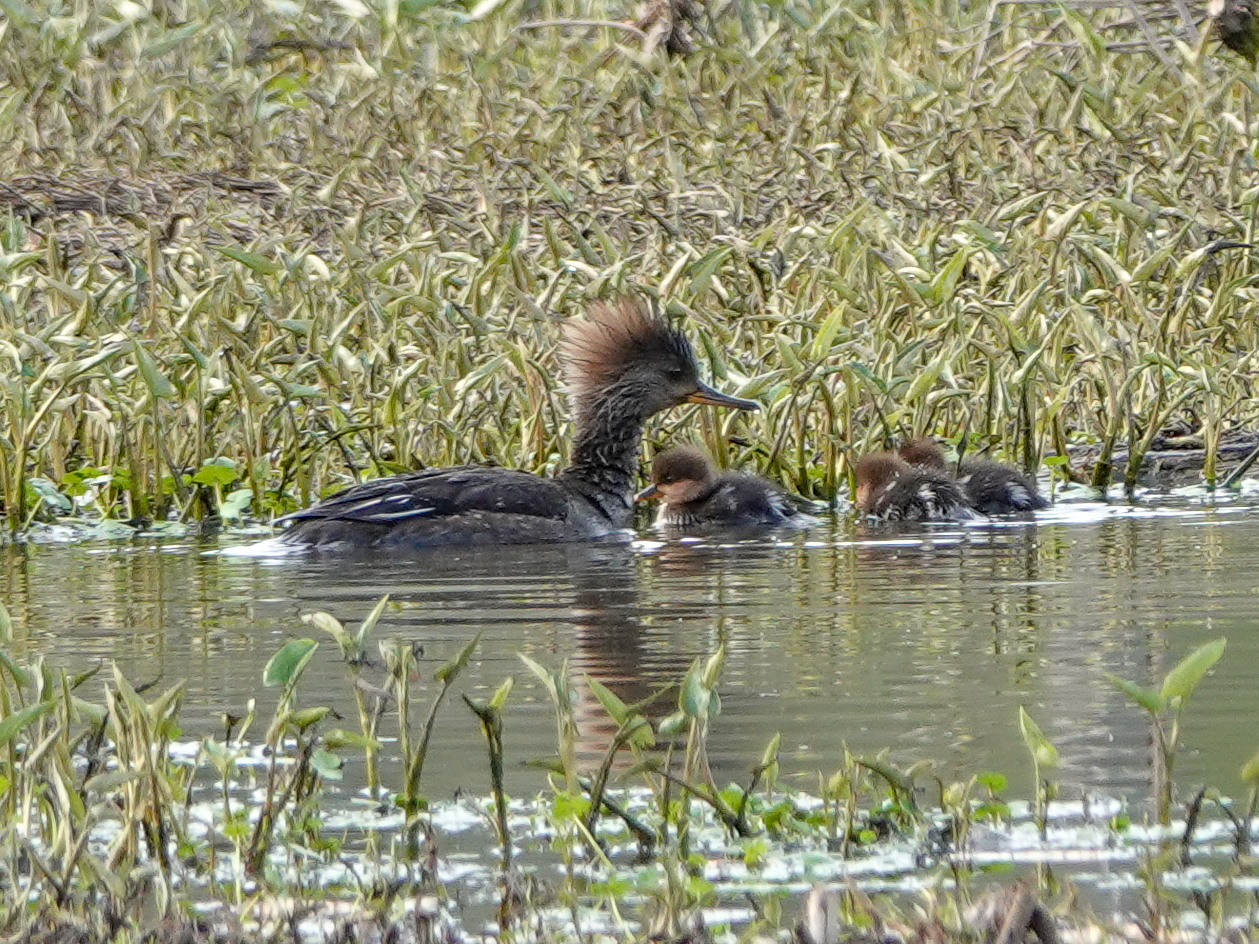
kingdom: Animalia
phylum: Chordata
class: Aves
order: Anseriformes
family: Anatidae
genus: Lophodytes
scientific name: Lophodytes cucullatus
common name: Hooded merganser
